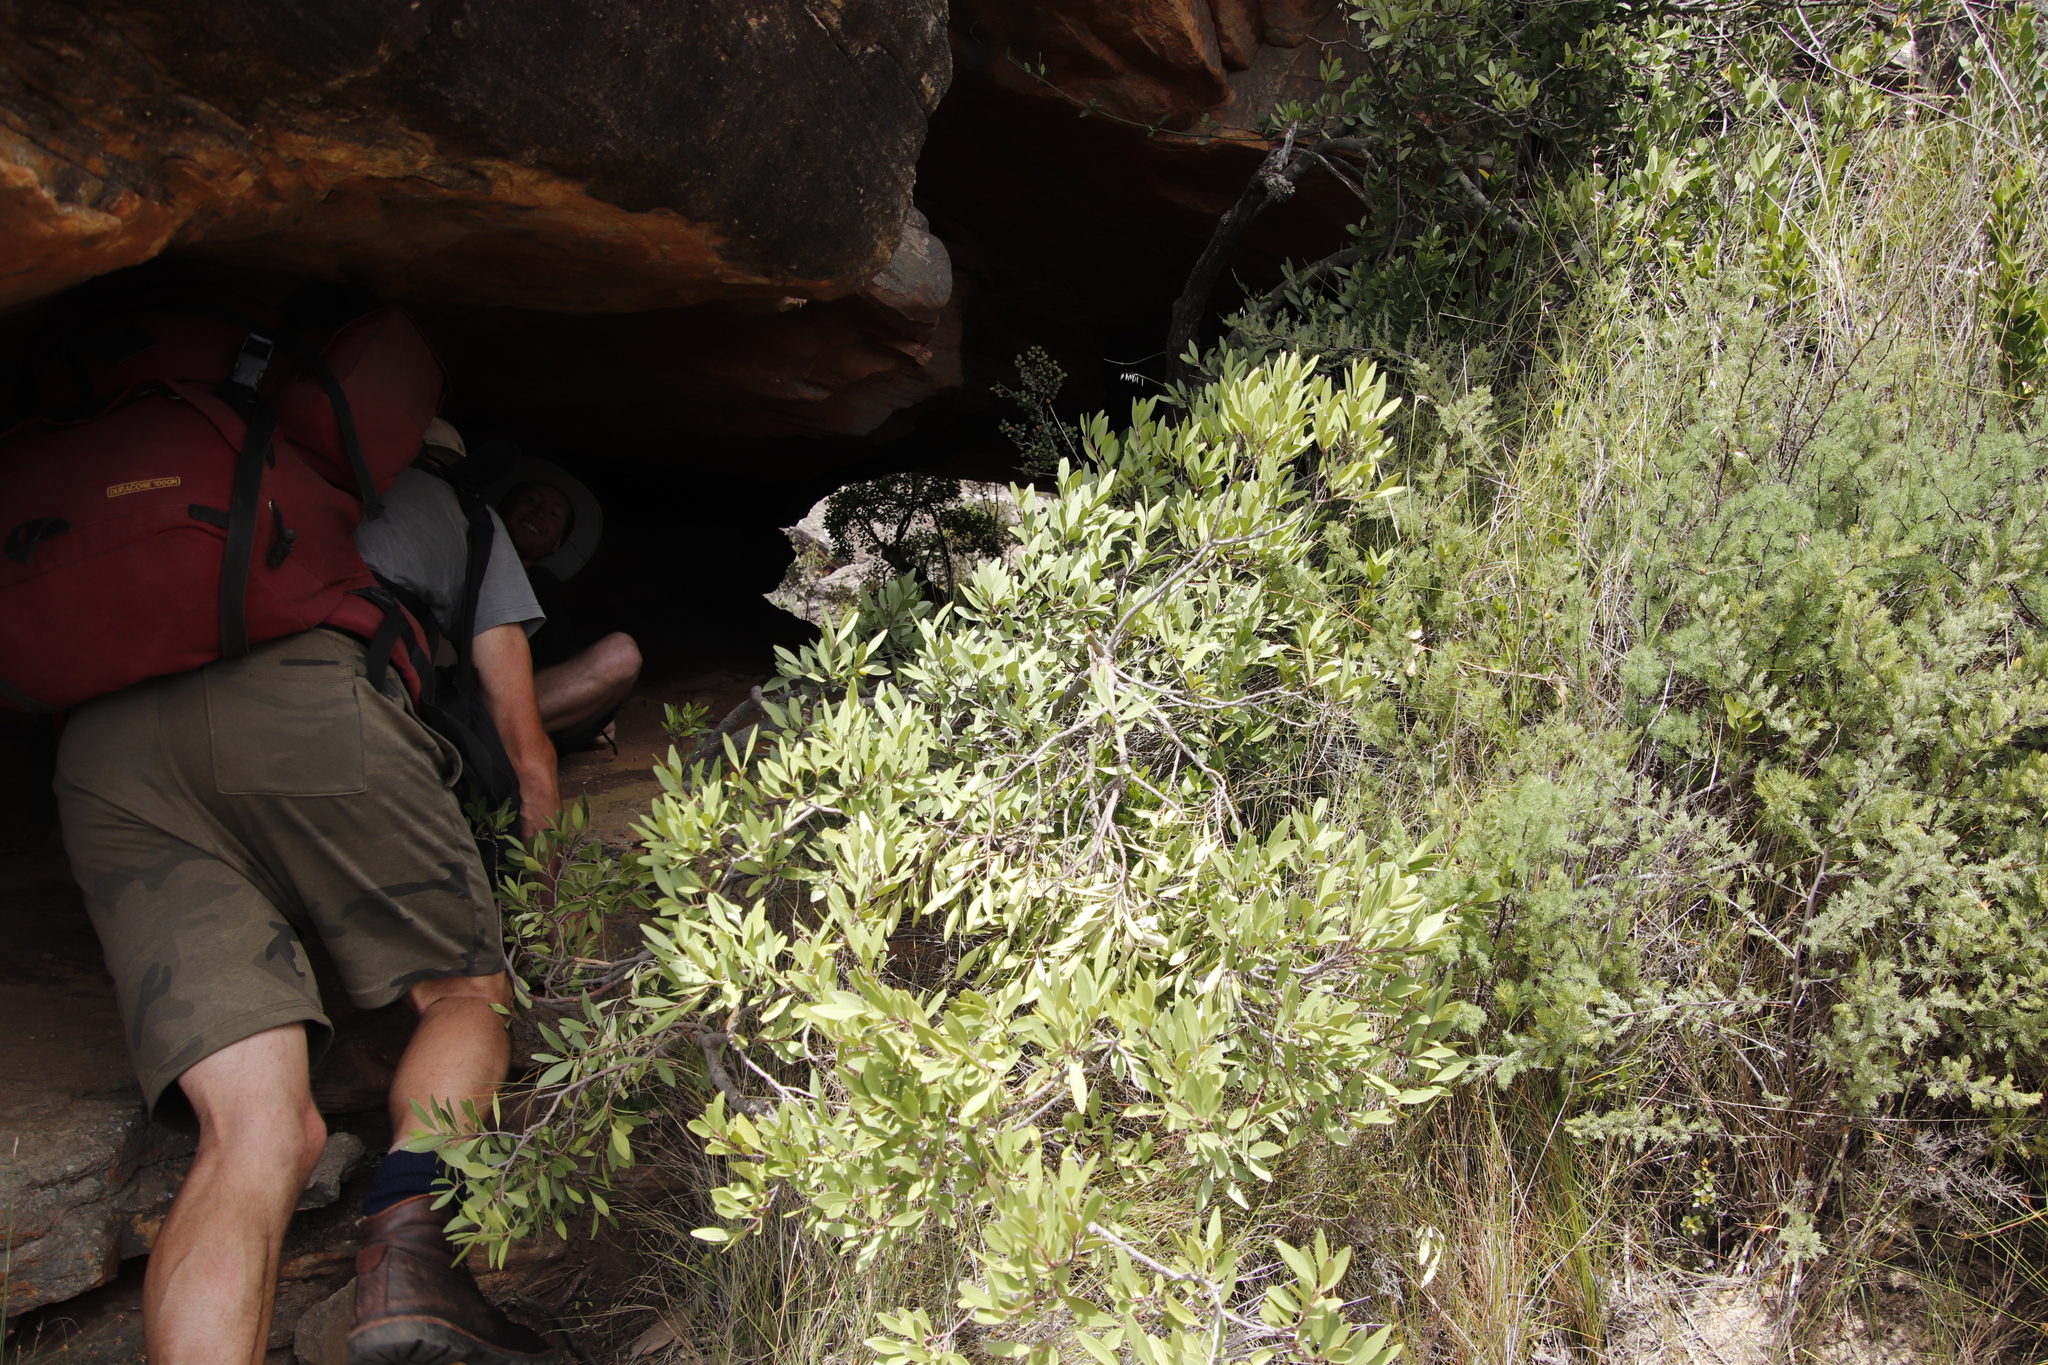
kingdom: Plantae
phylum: Tracheophyta
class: Magnoliopsida
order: Celastrales
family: Celastraceae
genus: Gymnosporia
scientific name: Gymnosporia laurina
